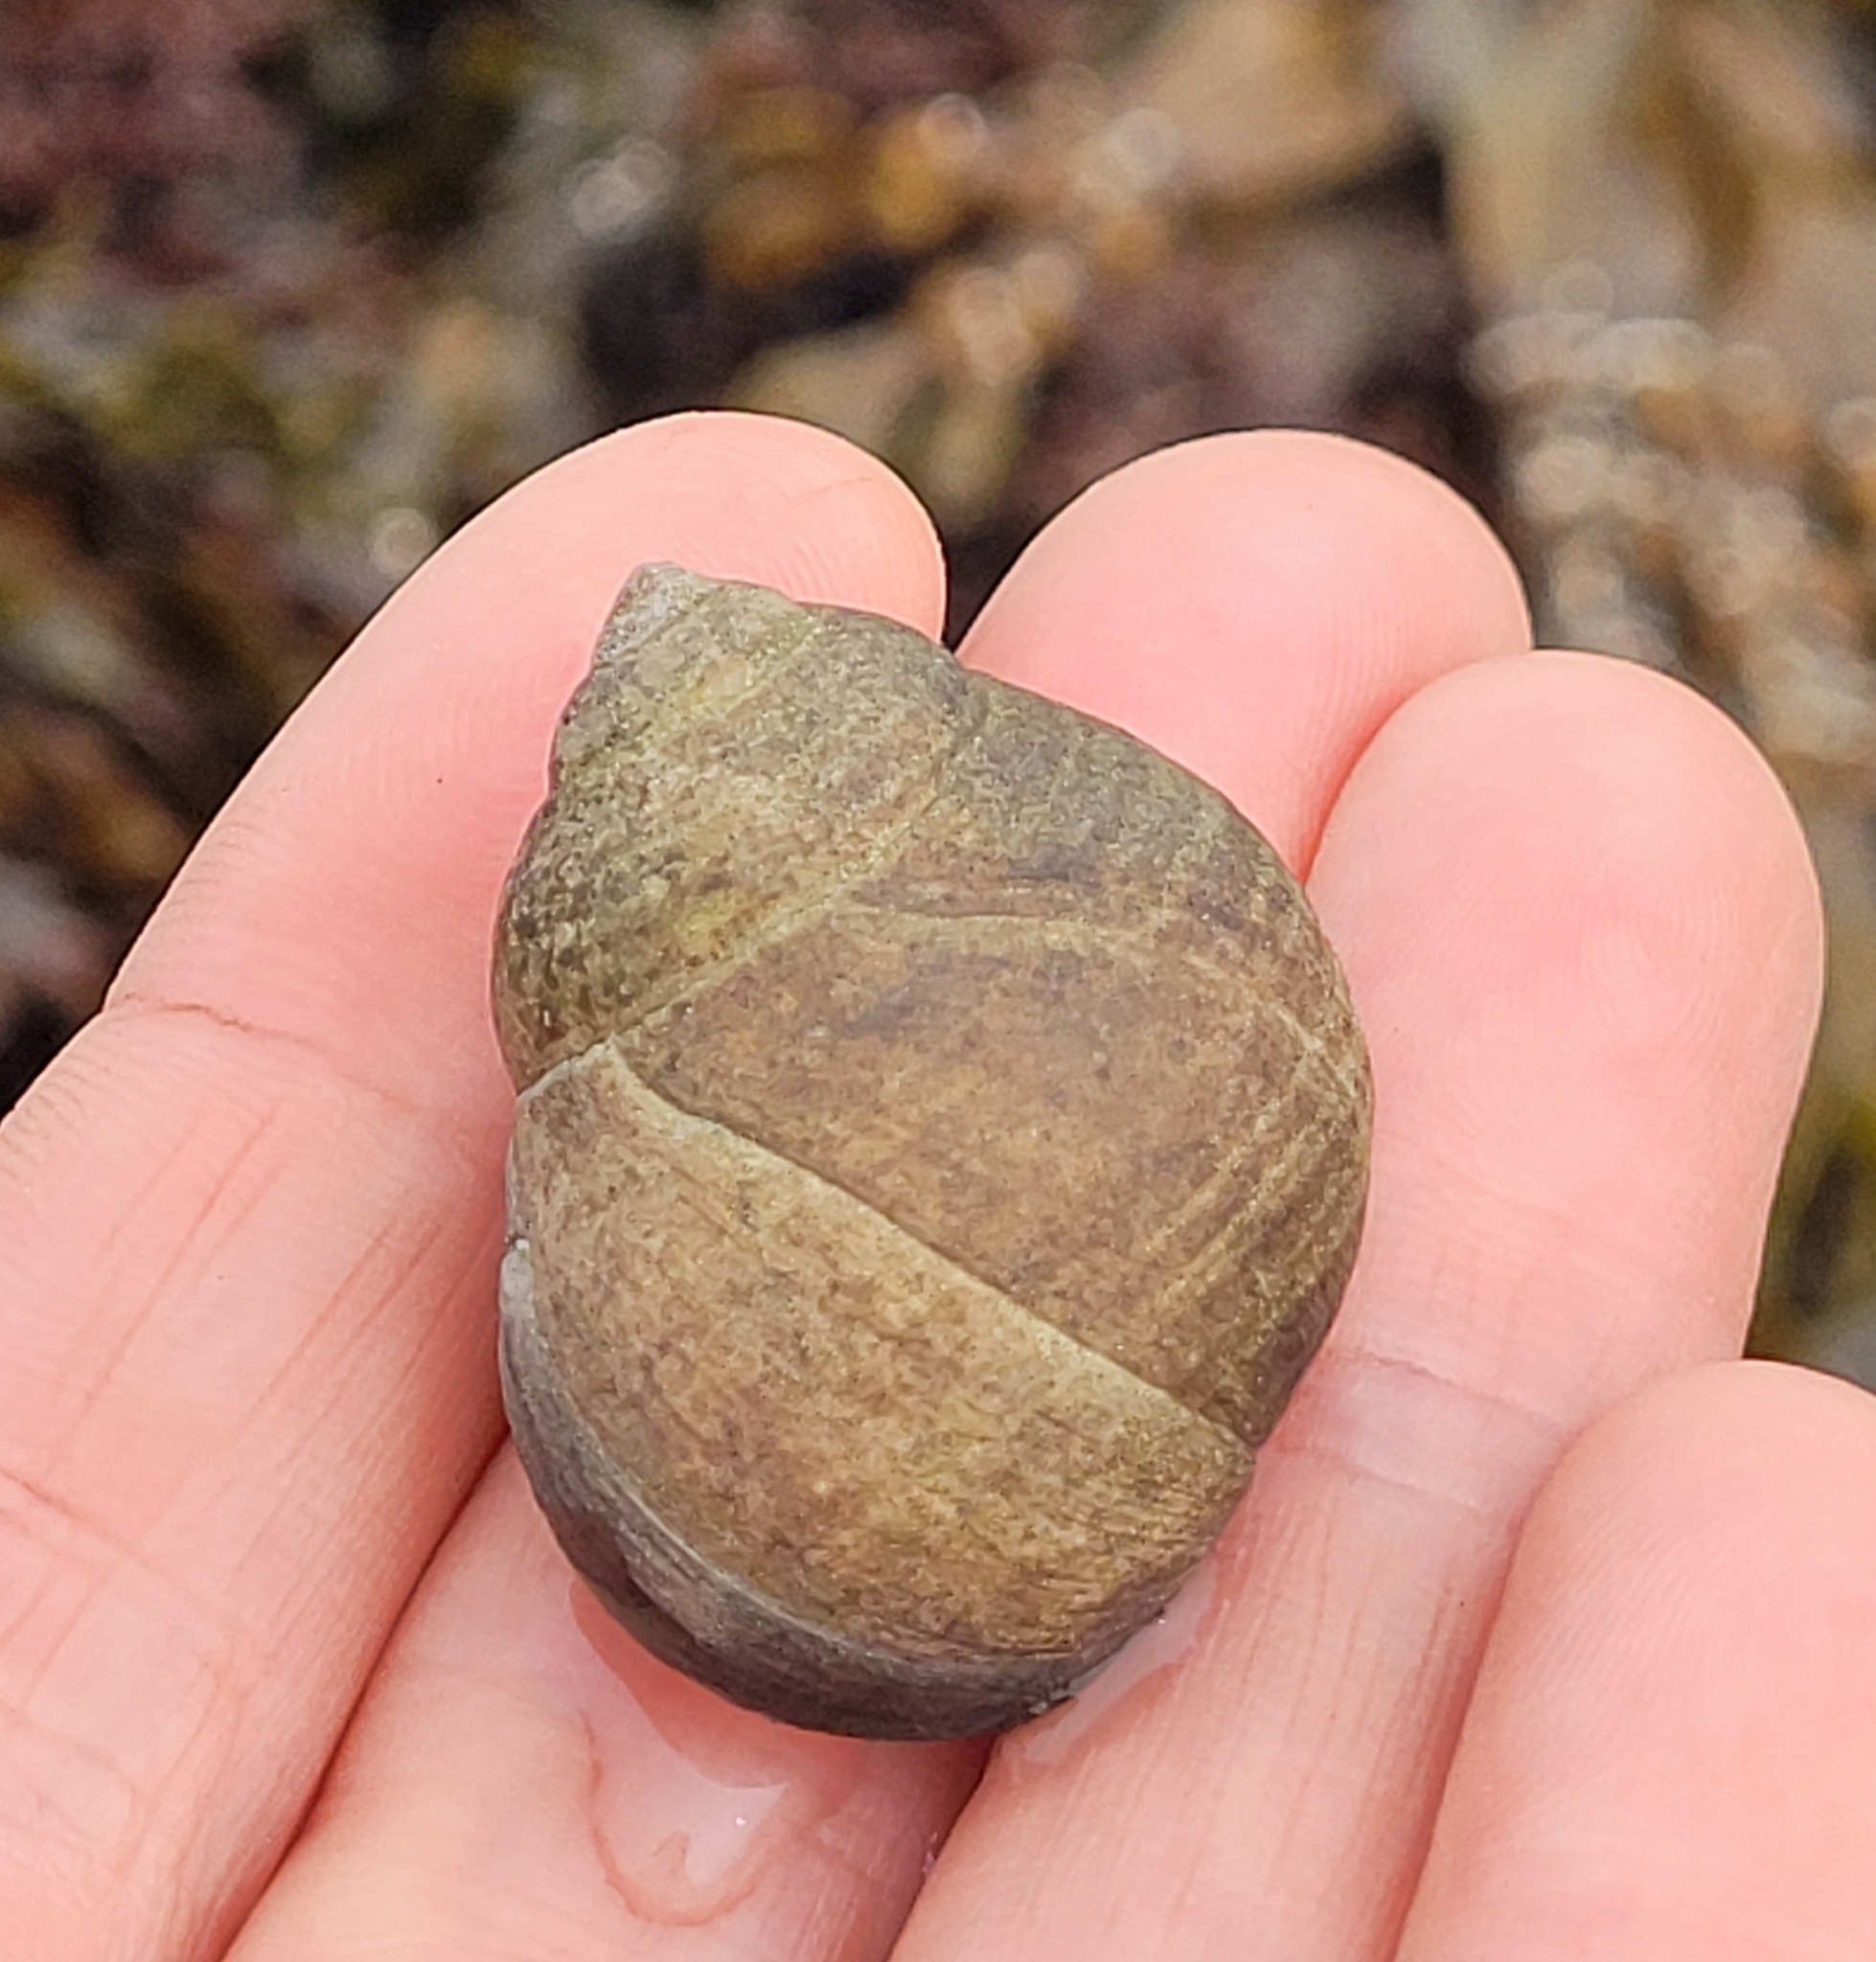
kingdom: Animalia
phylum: Mollusca
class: Gastropoda
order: Littorinimorpha
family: Littorinidae
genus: Littorina
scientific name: Littorina littorea
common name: Common periwinkle
